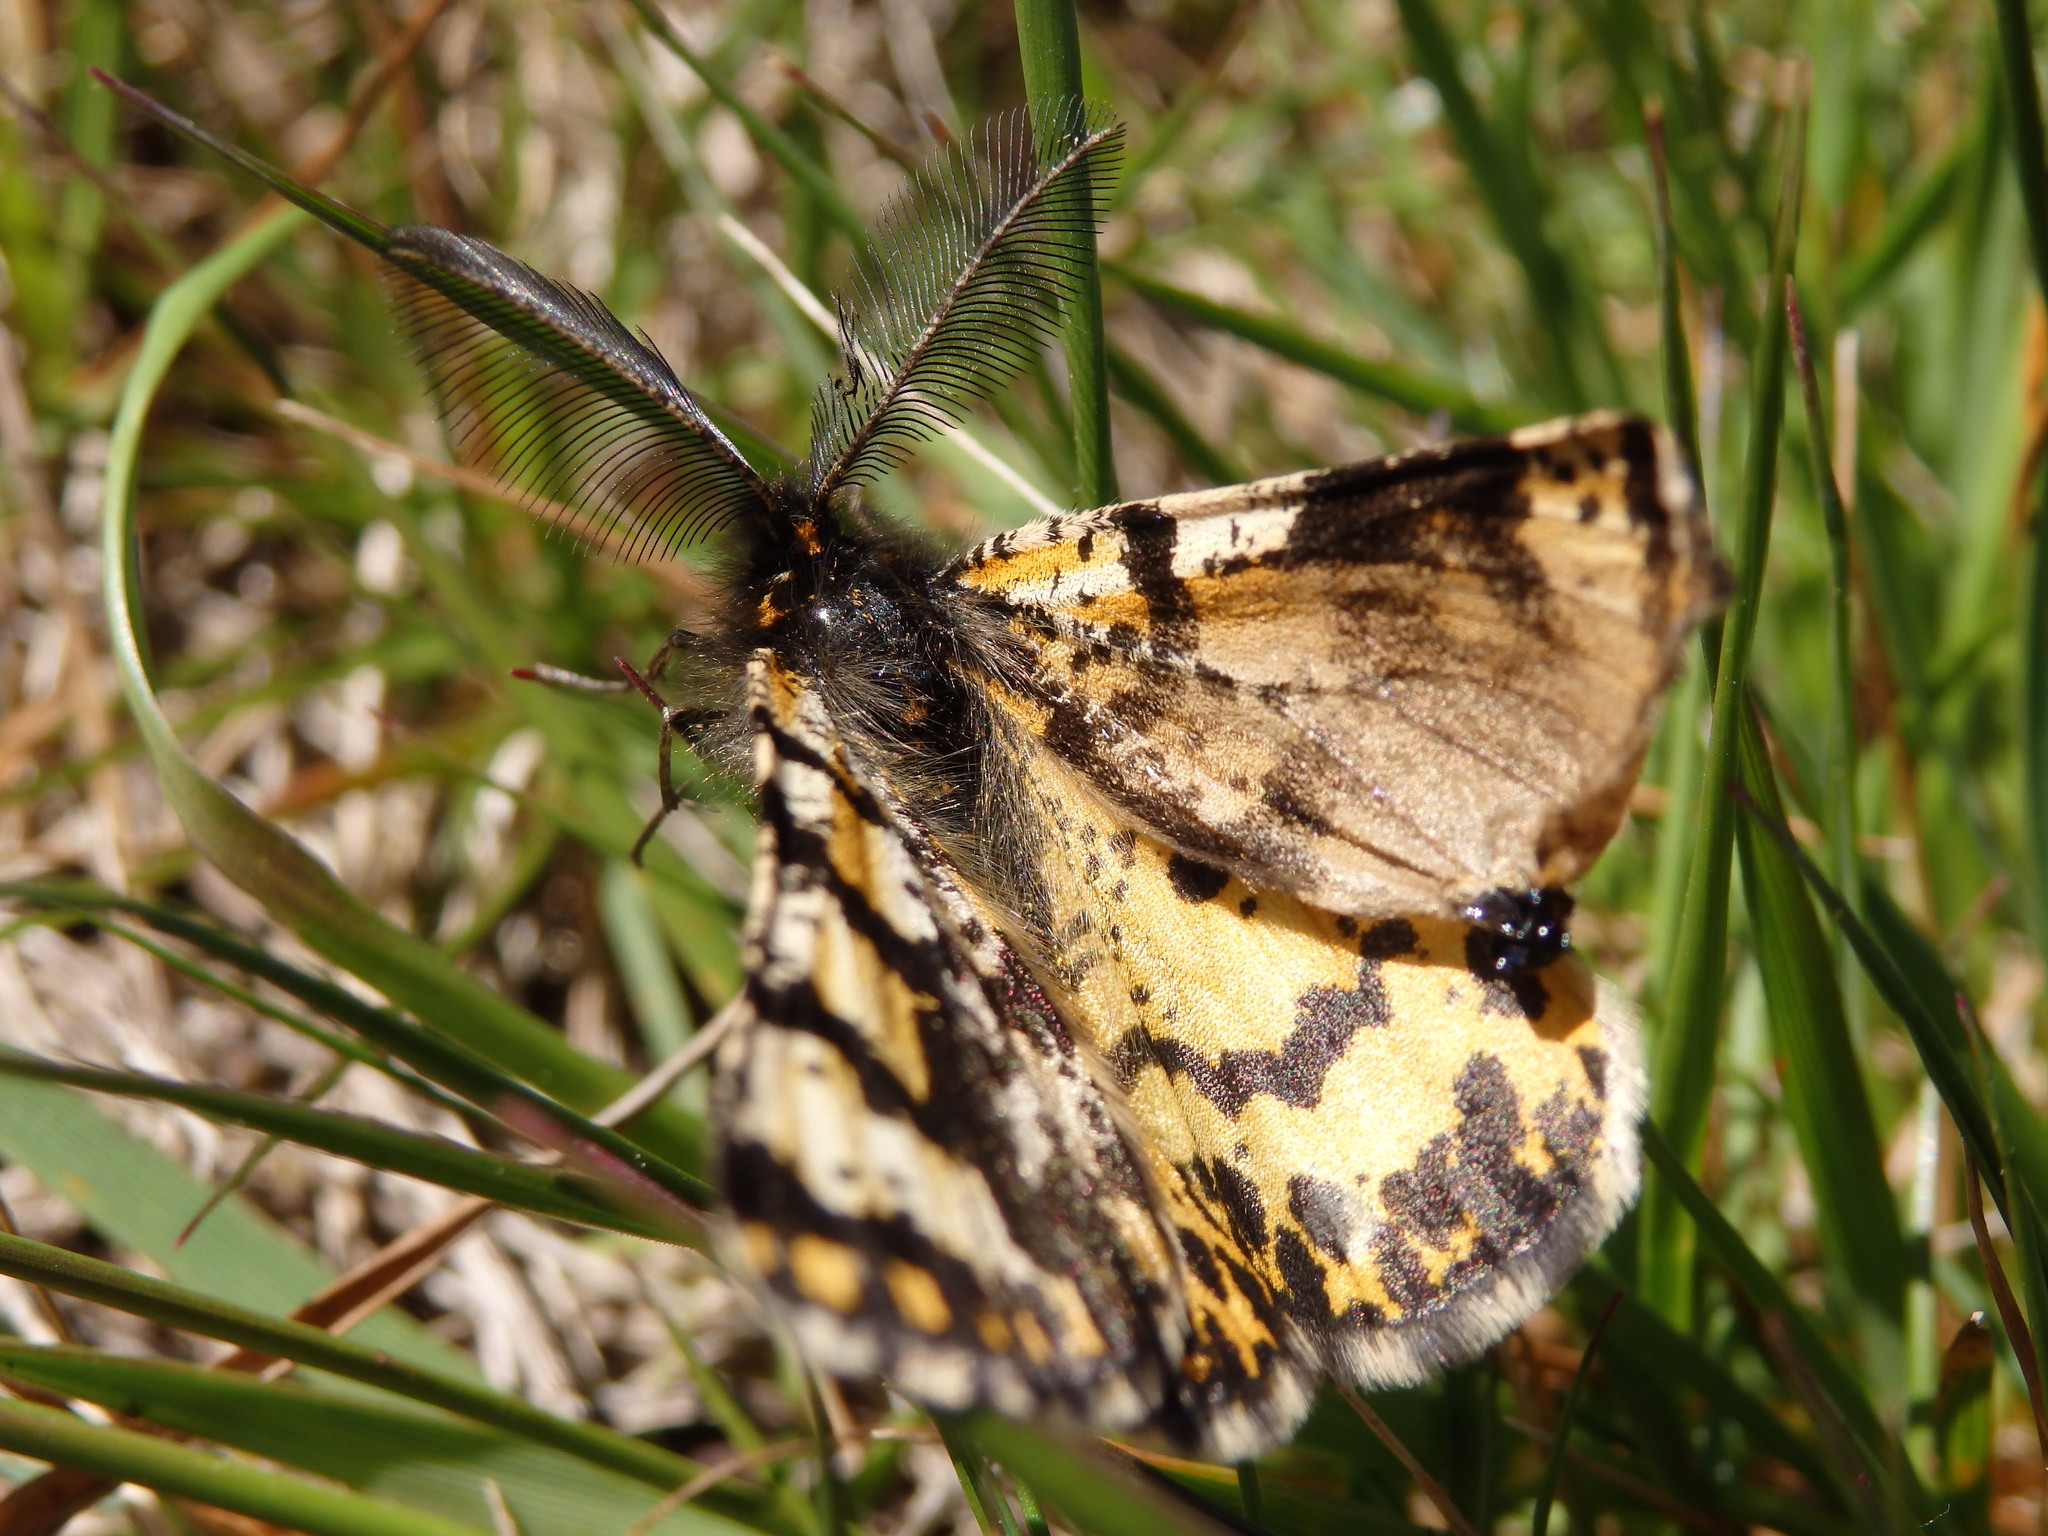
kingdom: Animalia
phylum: Arthropoda
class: Insecta
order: Lepidoptera
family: Geometridae
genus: Eurranthis
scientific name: Eurranthis plummistaria
